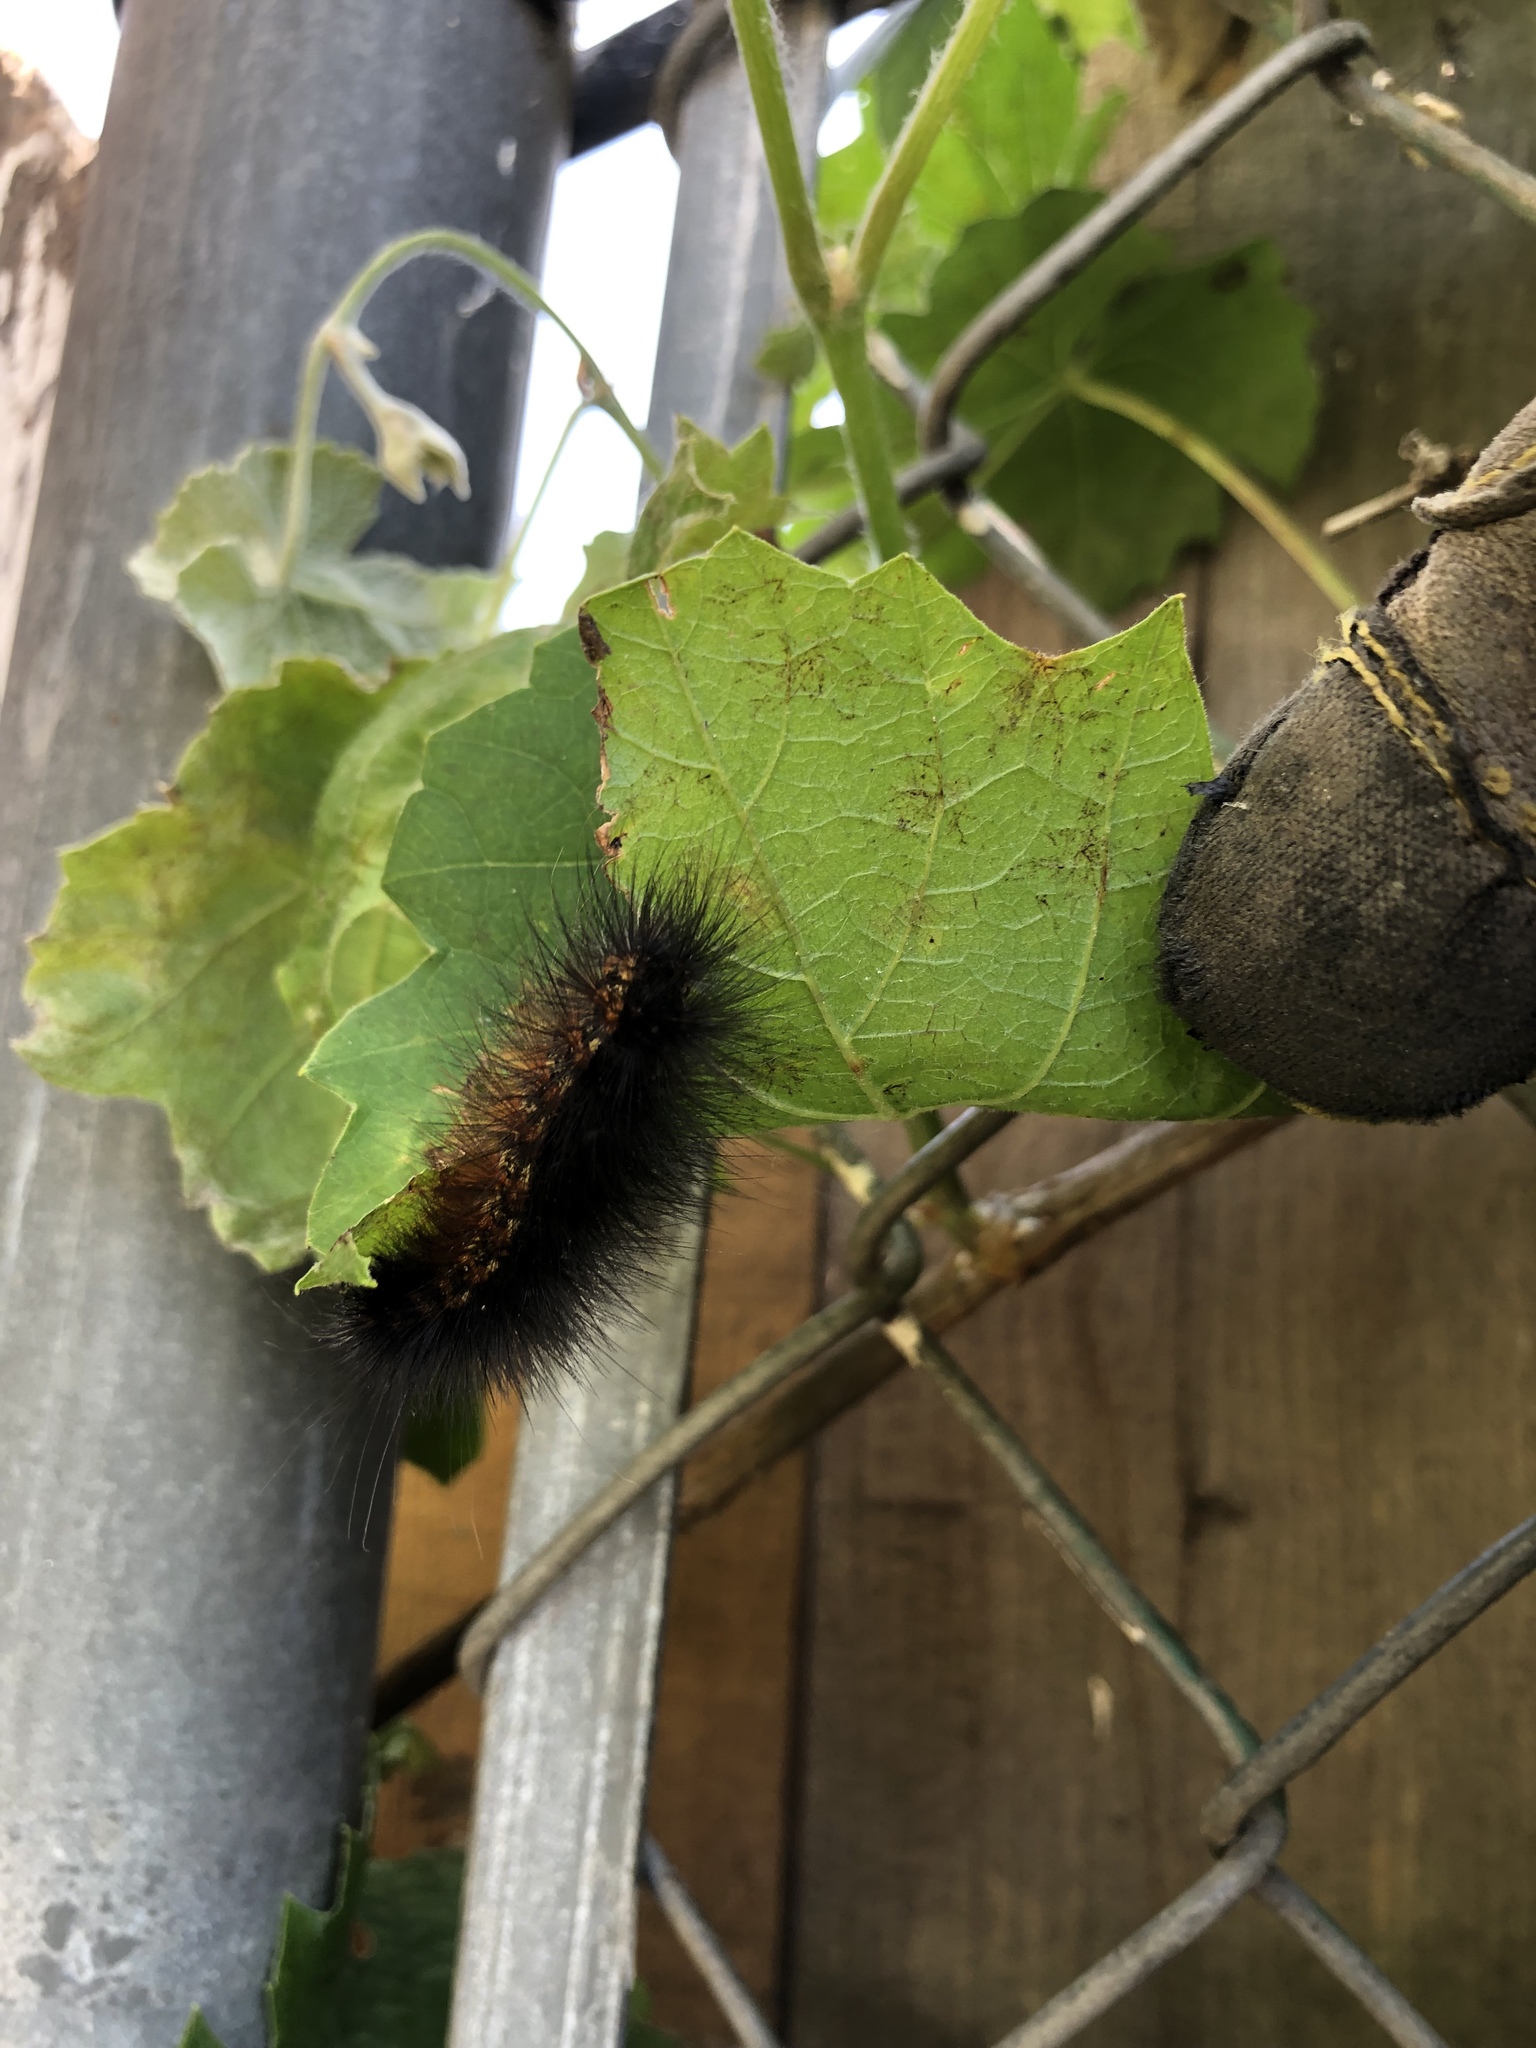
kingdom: Animalia
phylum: Arthropoda
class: Insecta
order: Lepidoptera
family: Erebidae
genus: Estigmene
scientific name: Estigmene acrea
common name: Salt marsh moth
